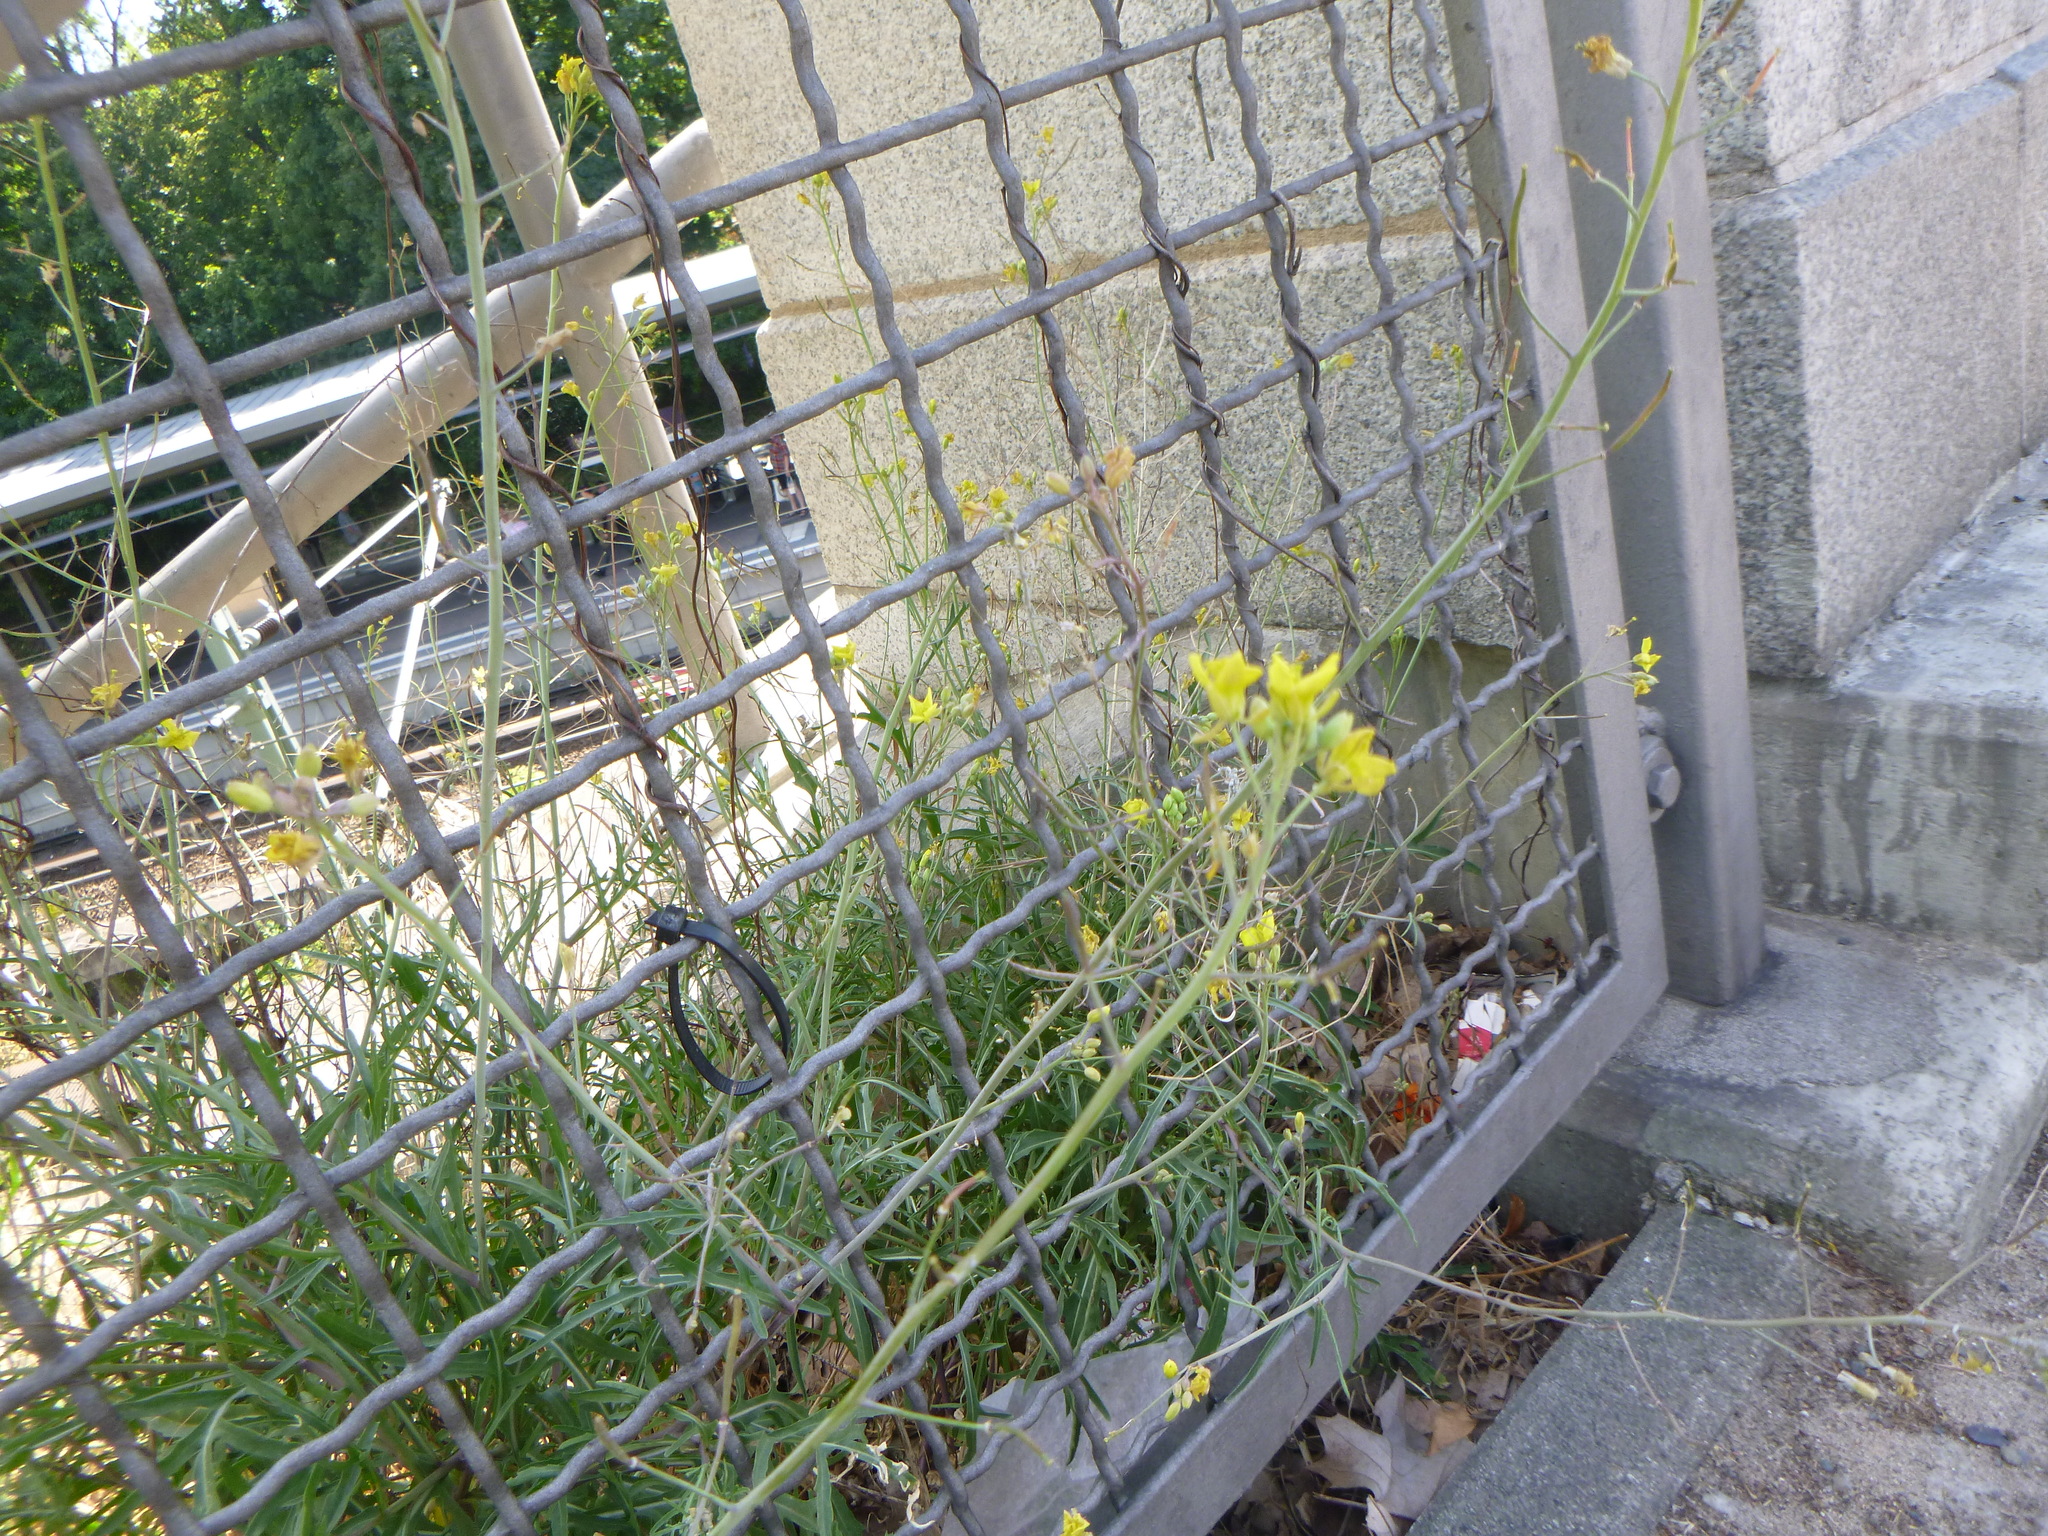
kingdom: Plantae
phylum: Tracheophyta
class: Magnoliopsida
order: Brassicales
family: Brassicaceae
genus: Diplotaxis
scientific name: Diplotaxis tenuifolia
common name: Perennial wall-rocket
